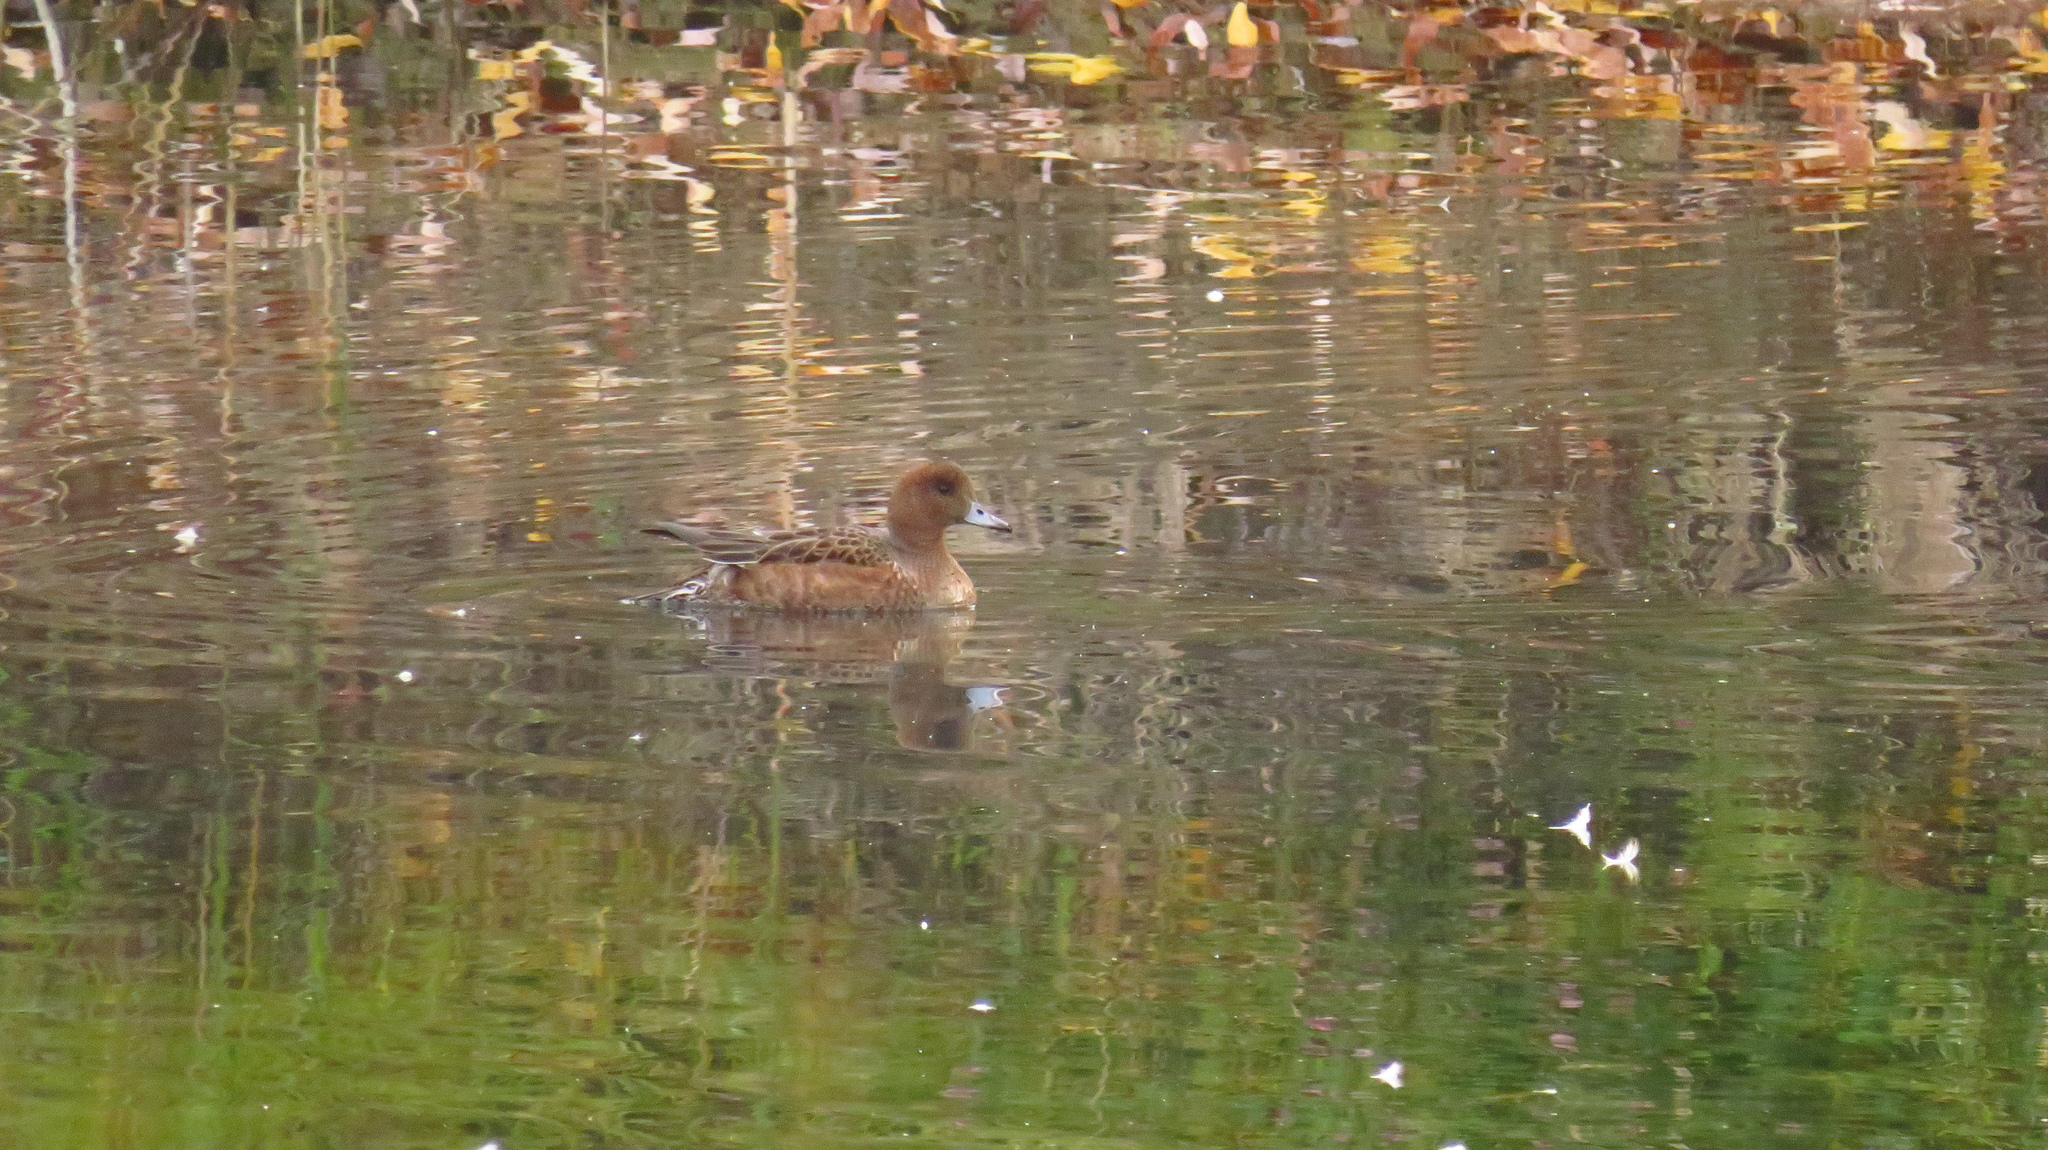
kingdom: Animalia
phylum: Chordata
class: Aves
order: Anseriformes
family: Anatidae
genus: Mareca
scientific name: Mareca penelope
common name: Eurasian wigeon
